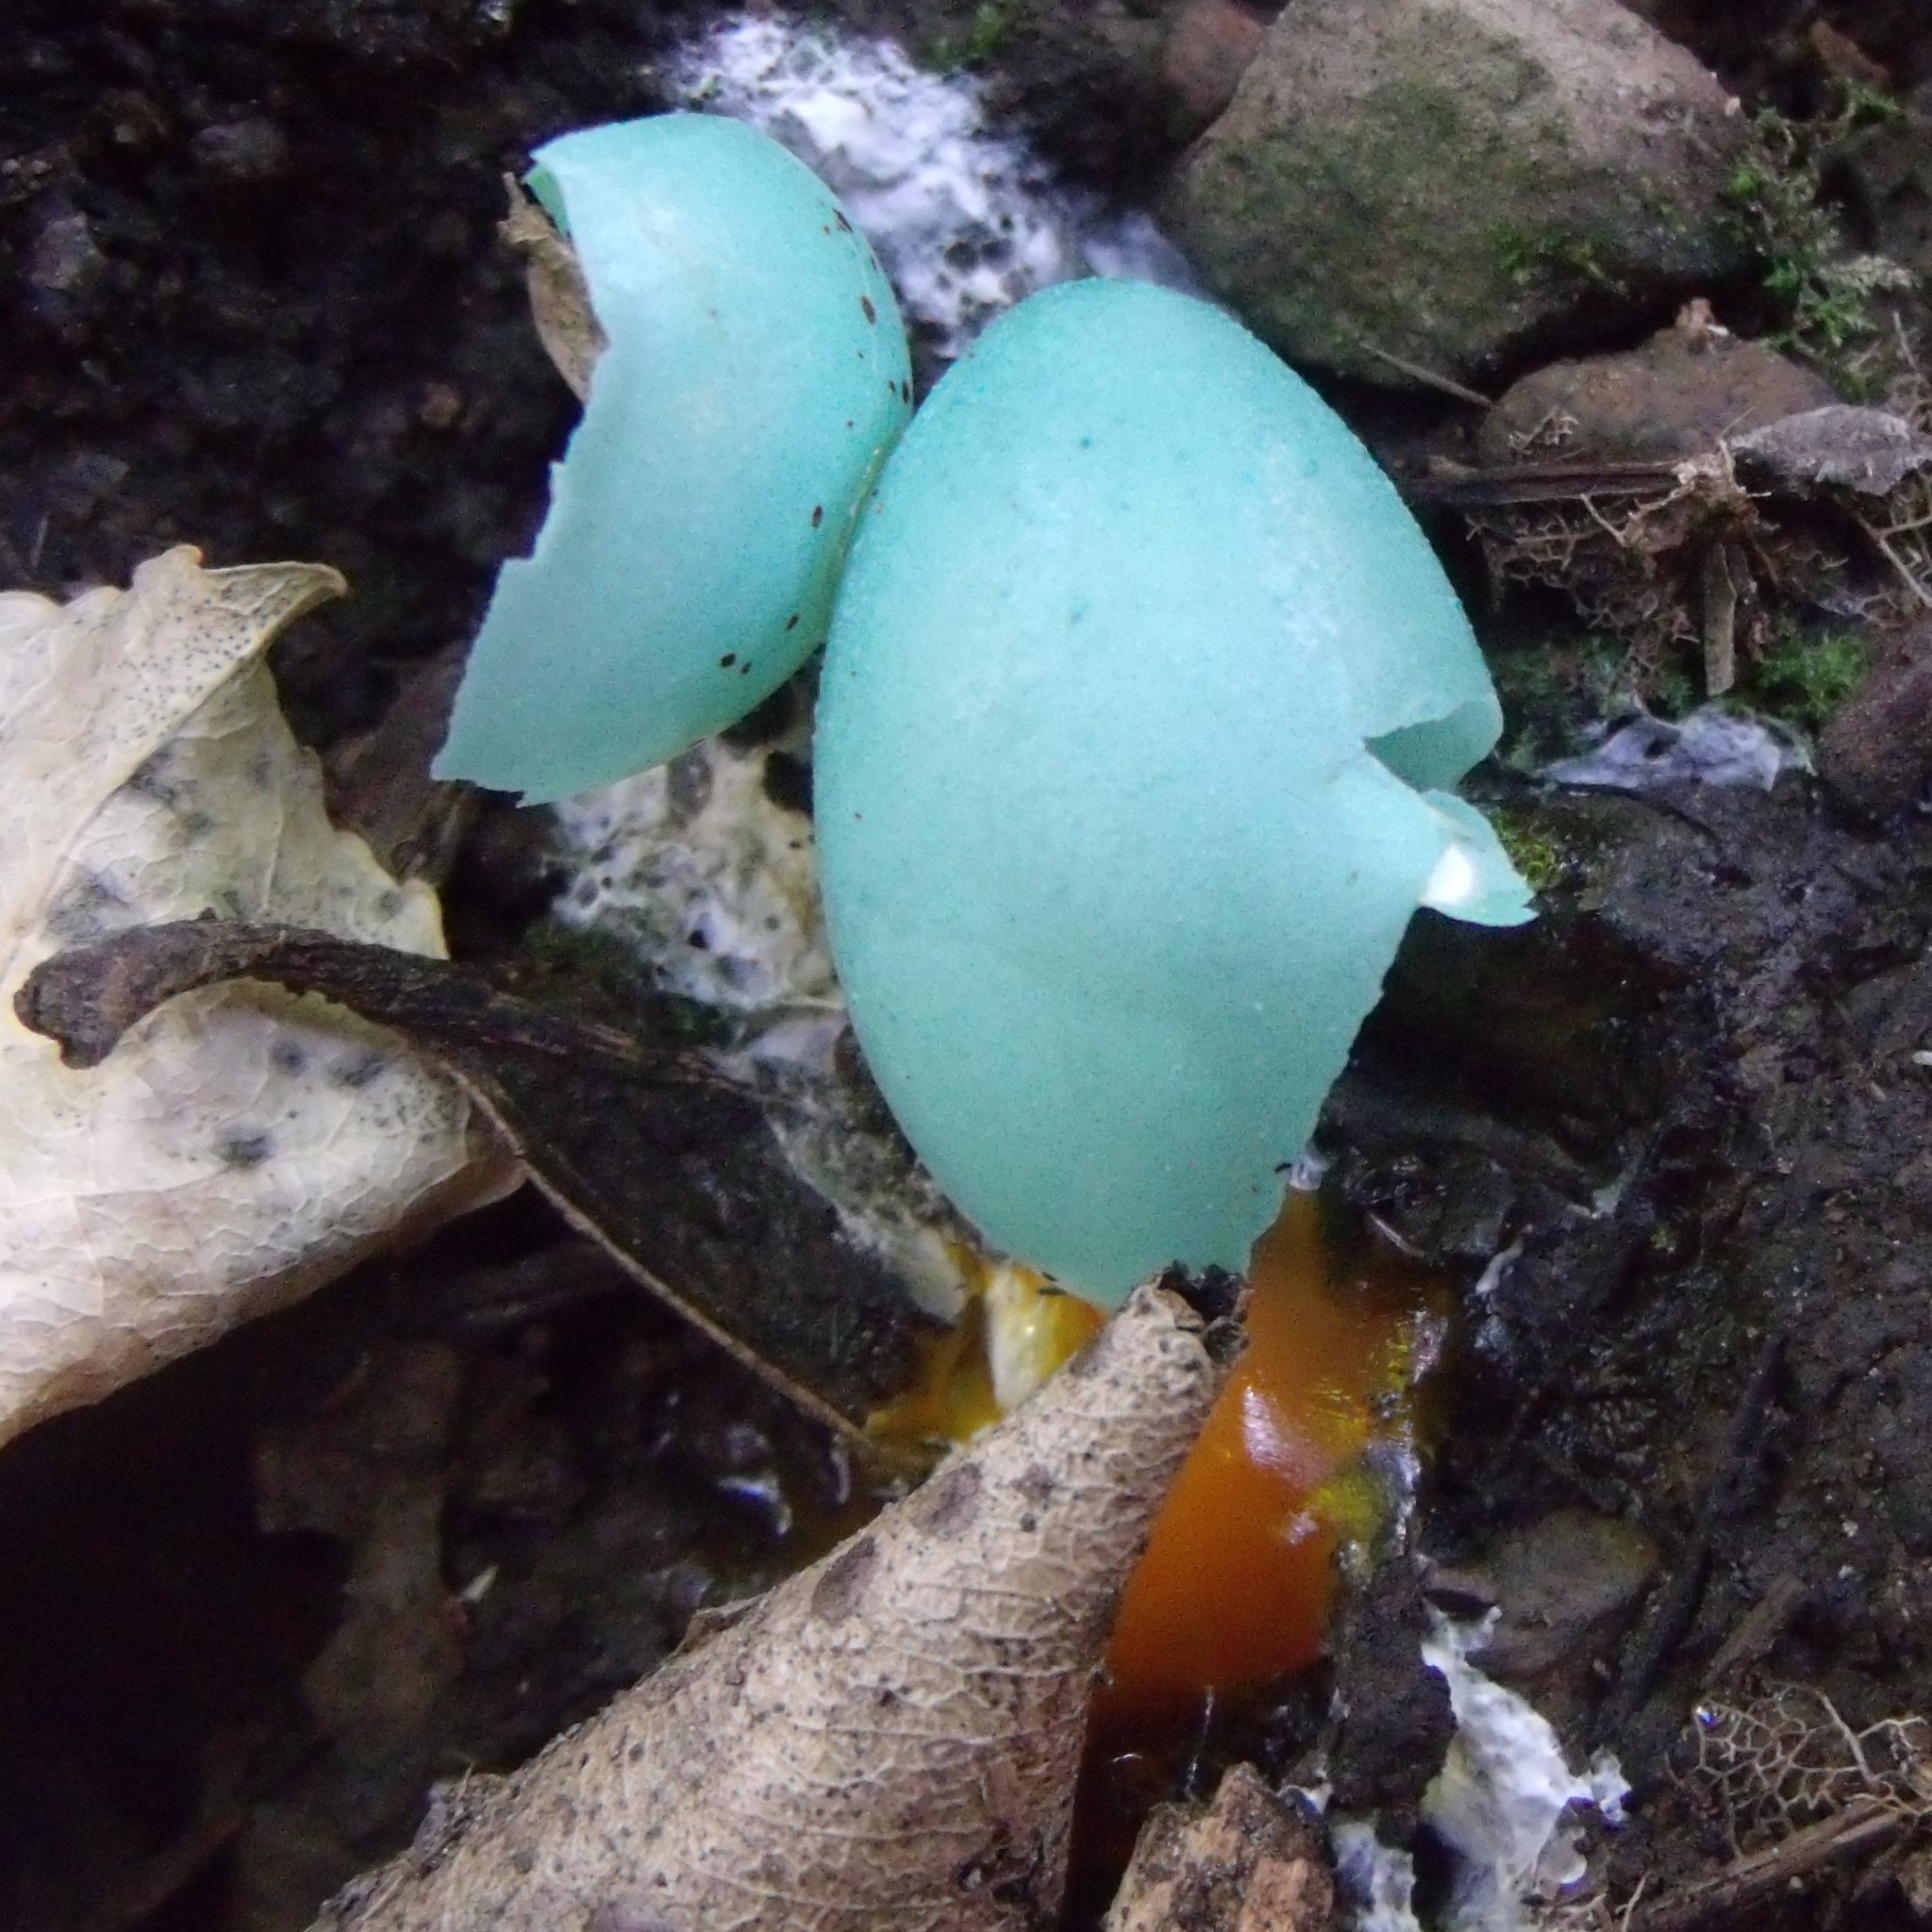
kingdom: Animalia
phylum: Chordata
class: Aves
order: Passeriformes
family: Turdidae
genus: Turdus
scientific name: Turdus philomelos
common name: Song thrush
